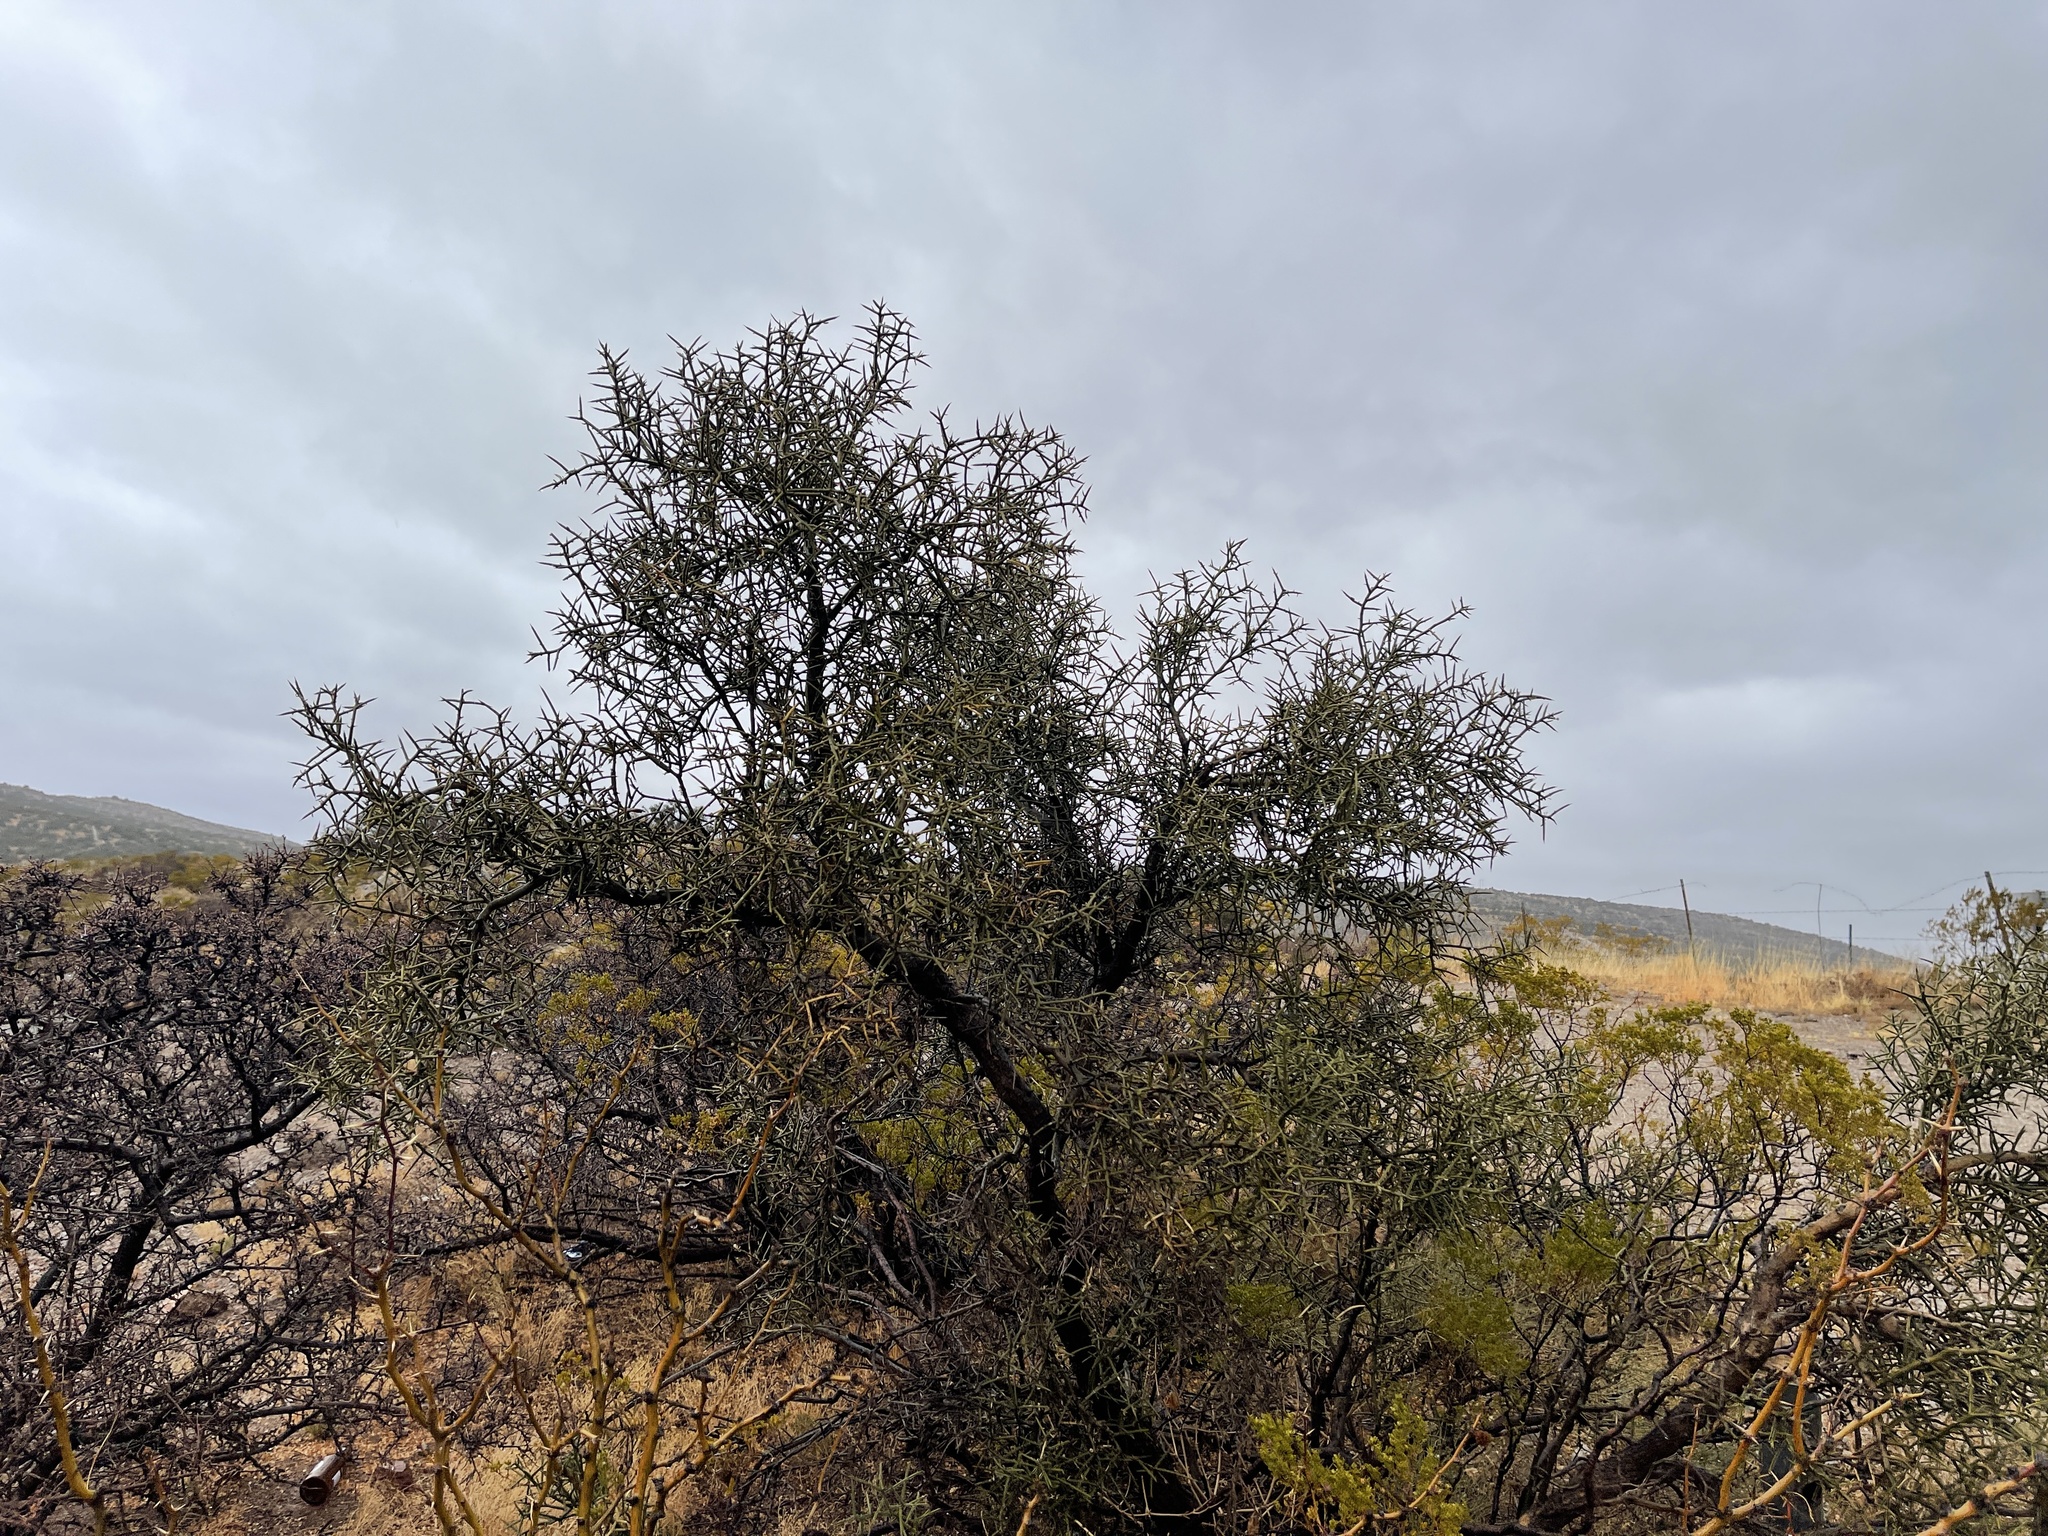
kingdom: Plantae
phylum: Tracheophyta
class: Magnoliopsida
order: Brassicales
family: Koeberliniaceae
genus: Koeberlinia
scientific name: Koeberlinia spinosa
